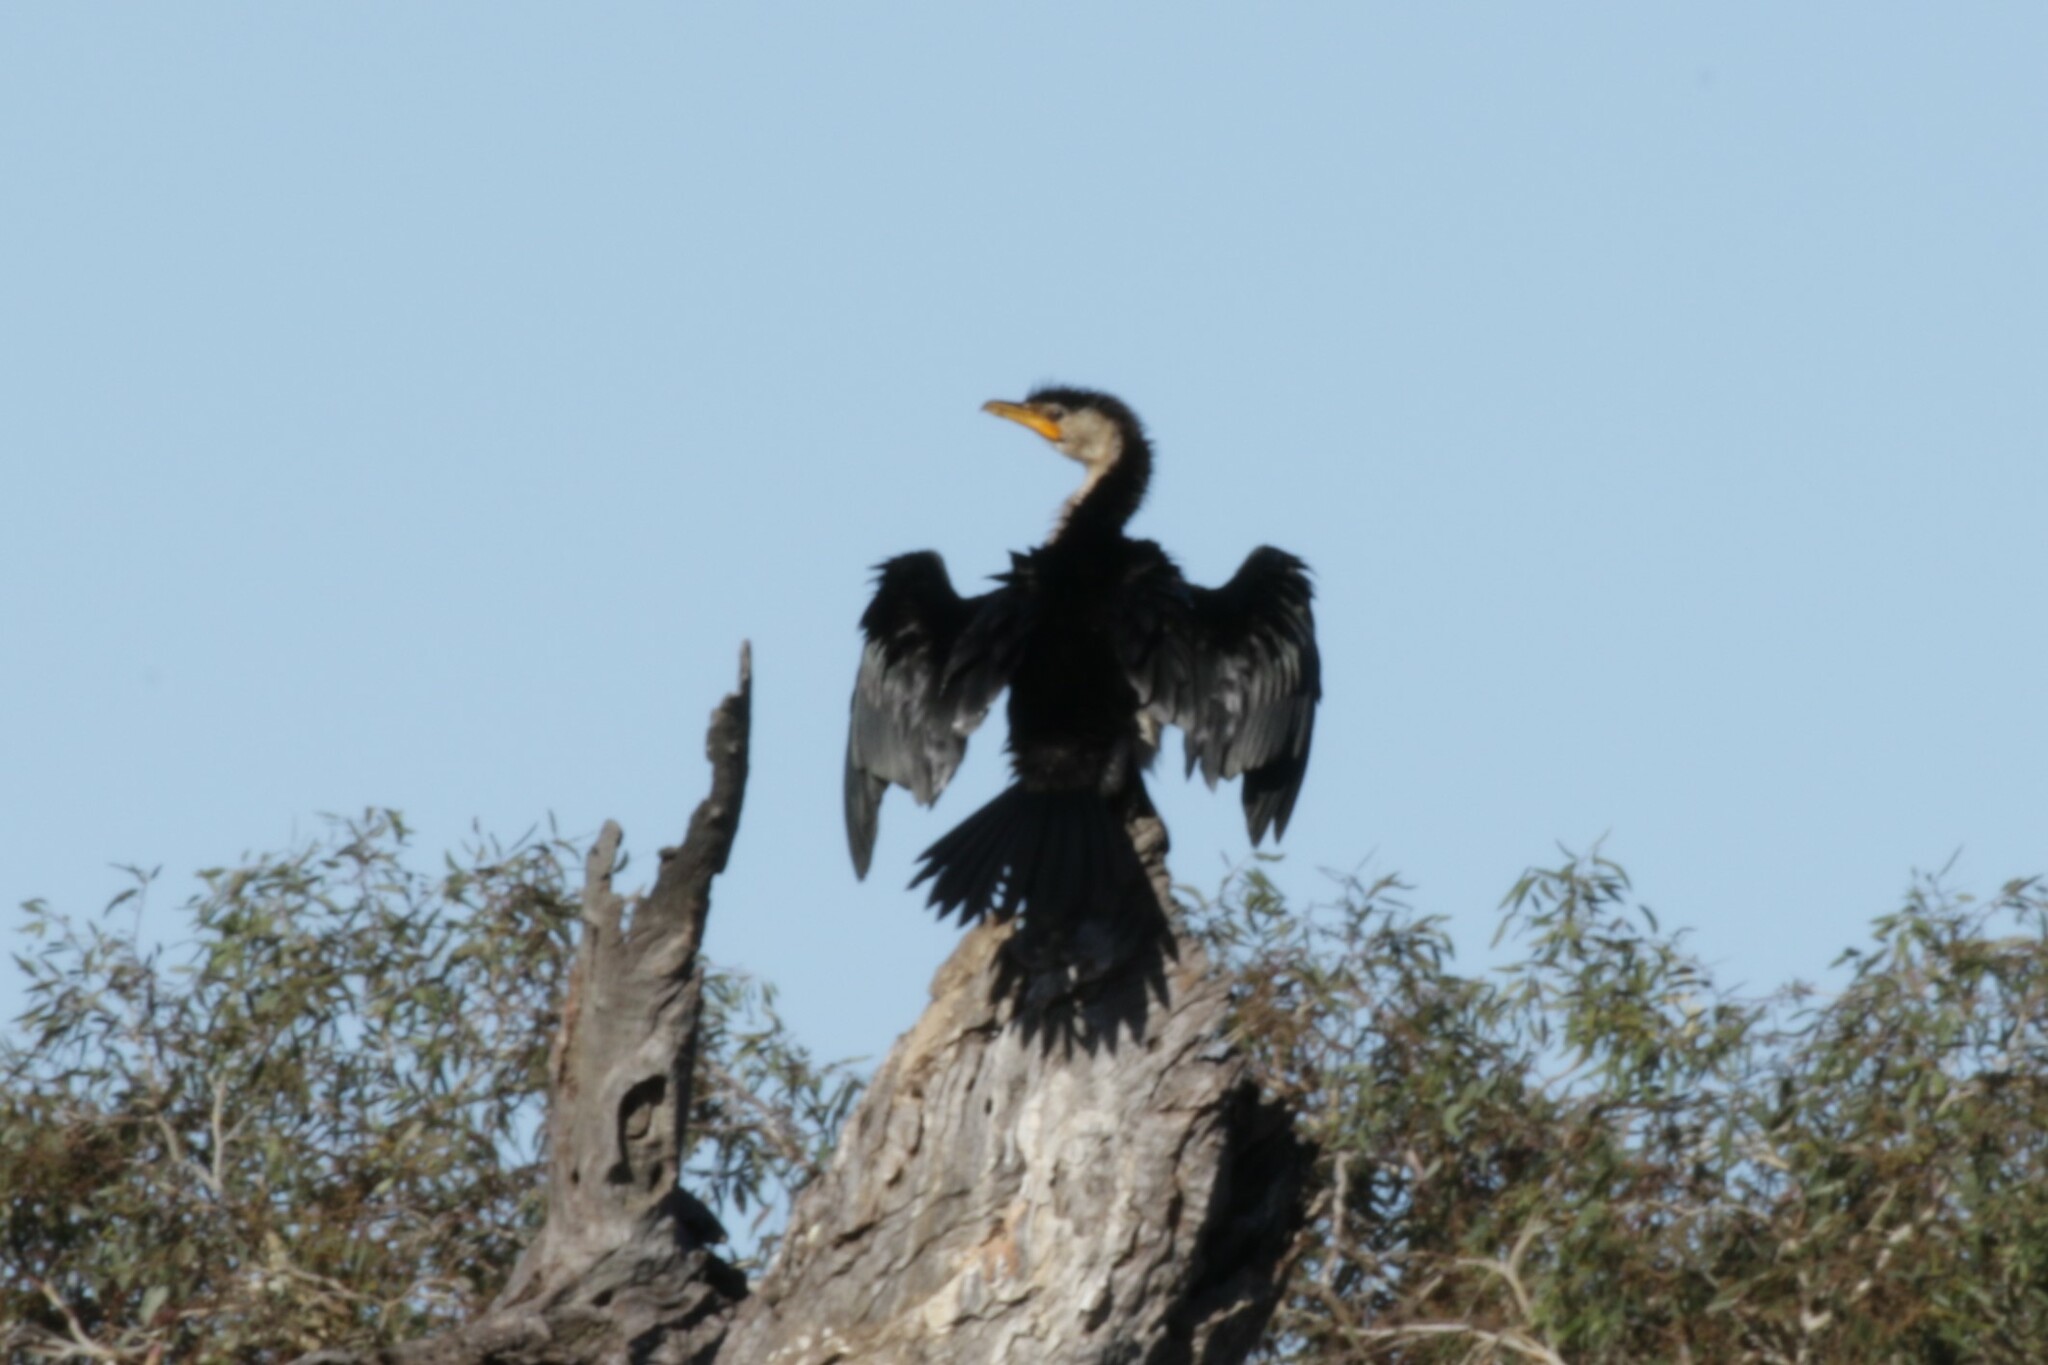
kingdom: Animalia
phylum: Chordata
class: Aves
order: Suliformes
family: Phalacrocoracidae
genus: Microcarbo
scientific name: Microcarbo melanoleucos
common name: Little pied cormorant
